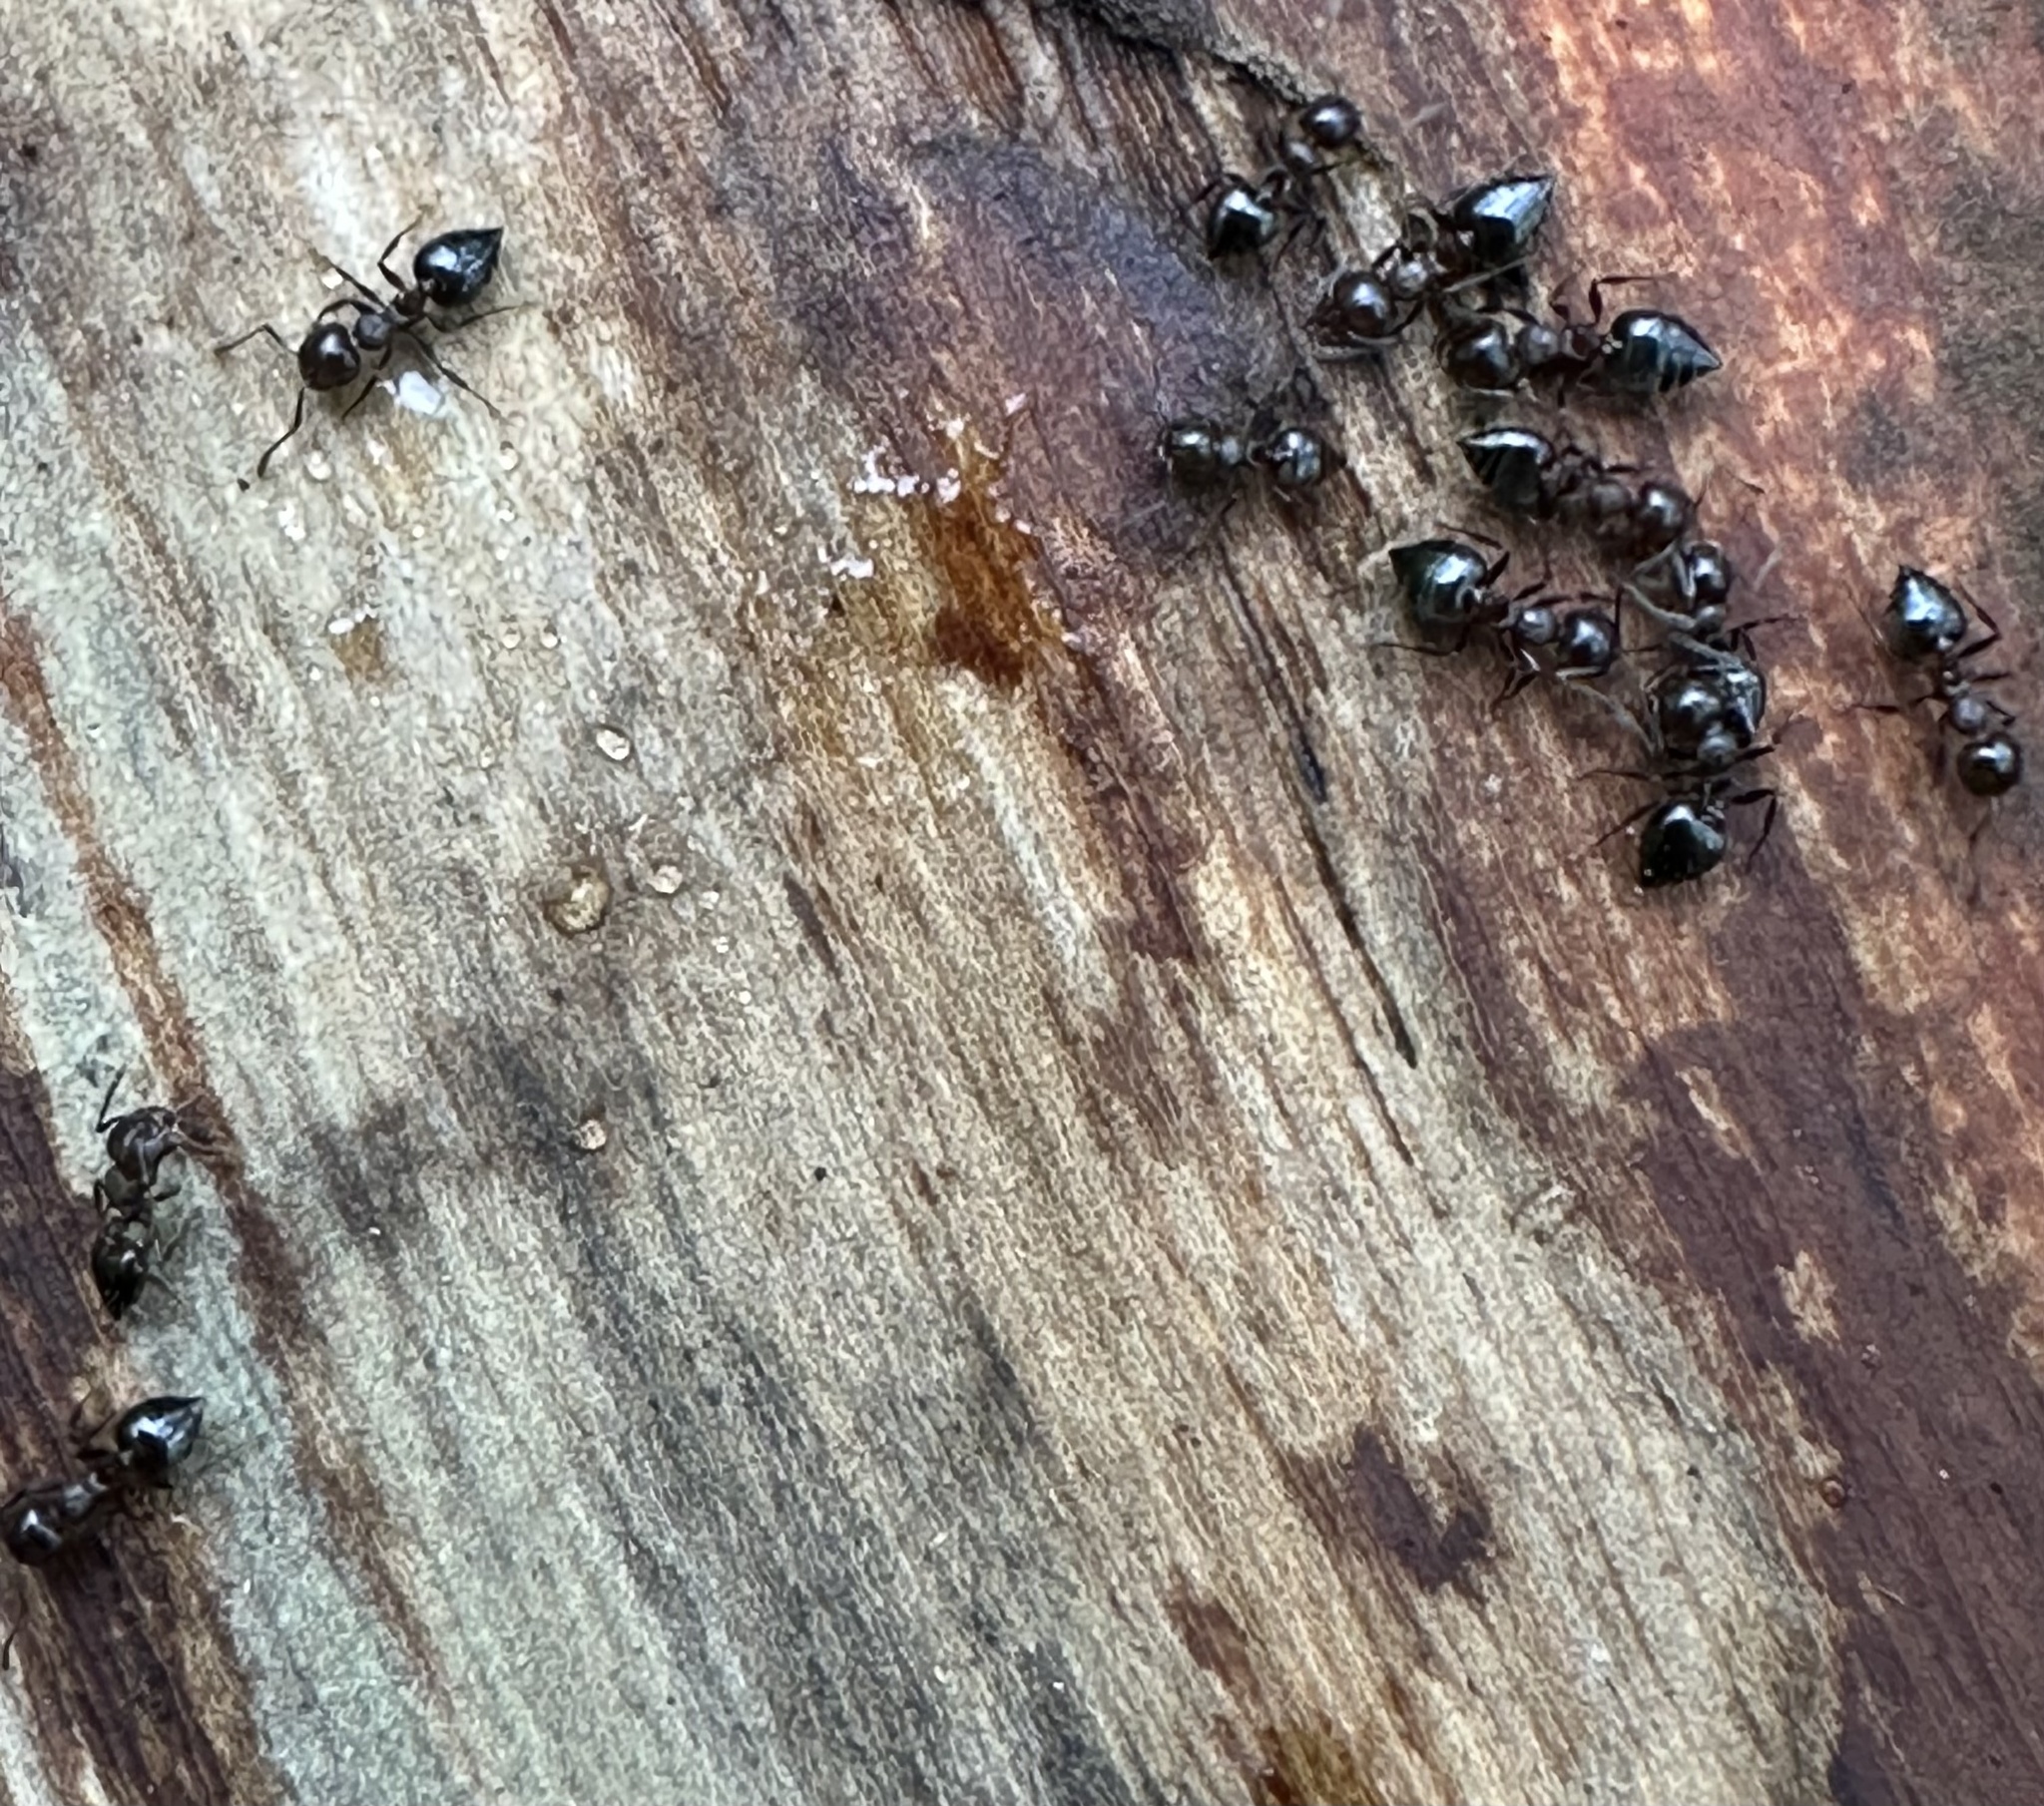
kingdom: Animalia
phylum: Arthropoda
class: Insecta
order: Hymenoptera
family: Formicidae
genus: Crematogaster
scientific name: Crematogaster
